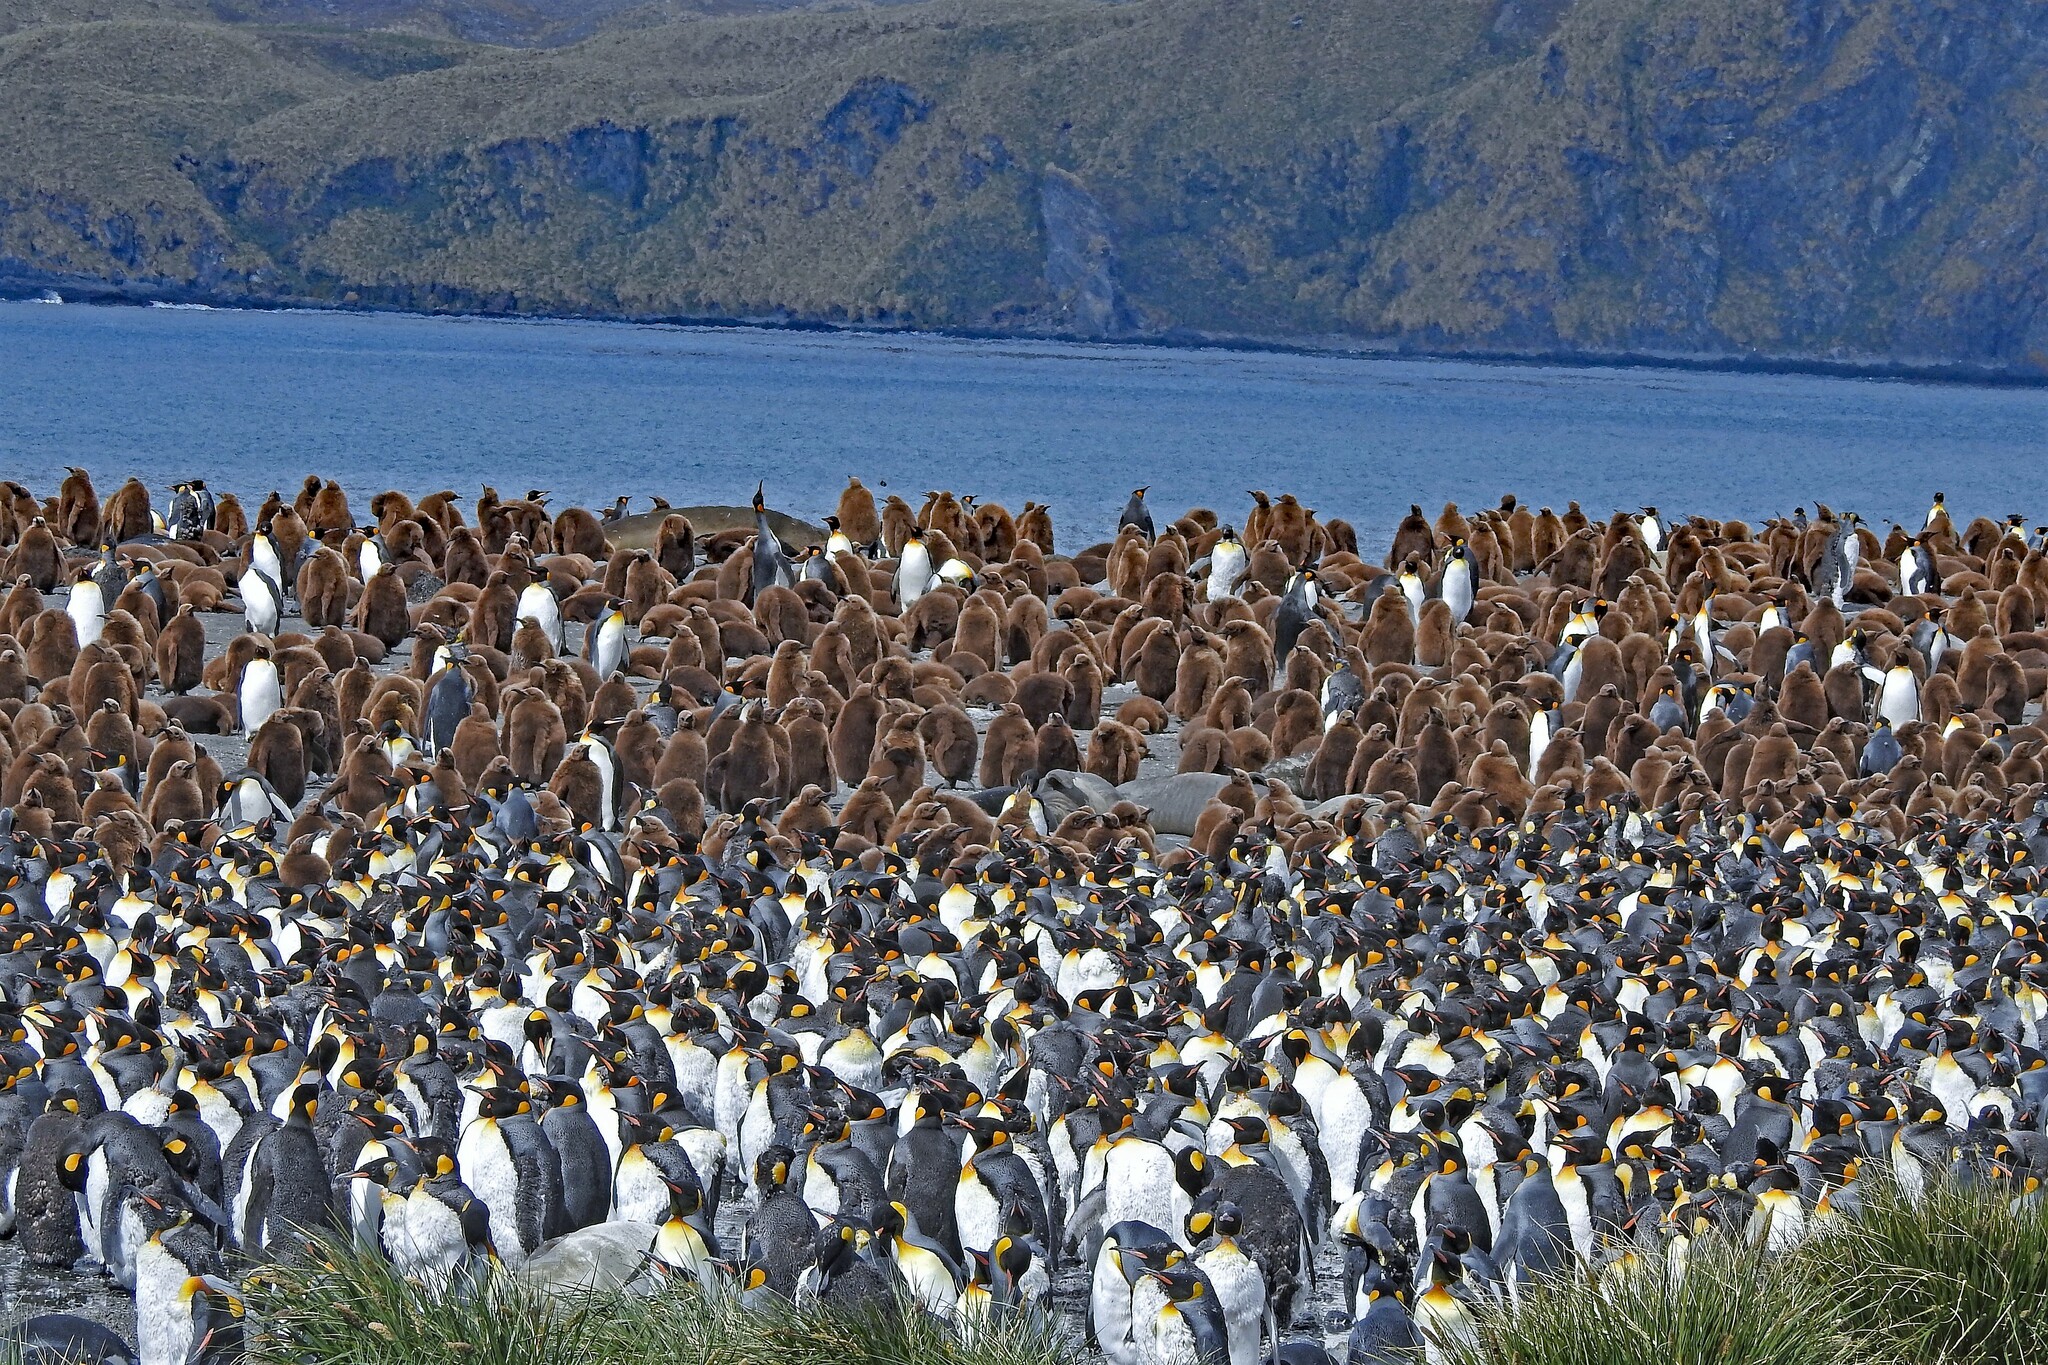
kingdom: Animalia
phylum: Chordata
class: Aves
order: Sphenisciformes
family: Spheniscidae
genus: Aptenodytes
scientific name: Aptenodytes patagonicus
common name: King penguin
